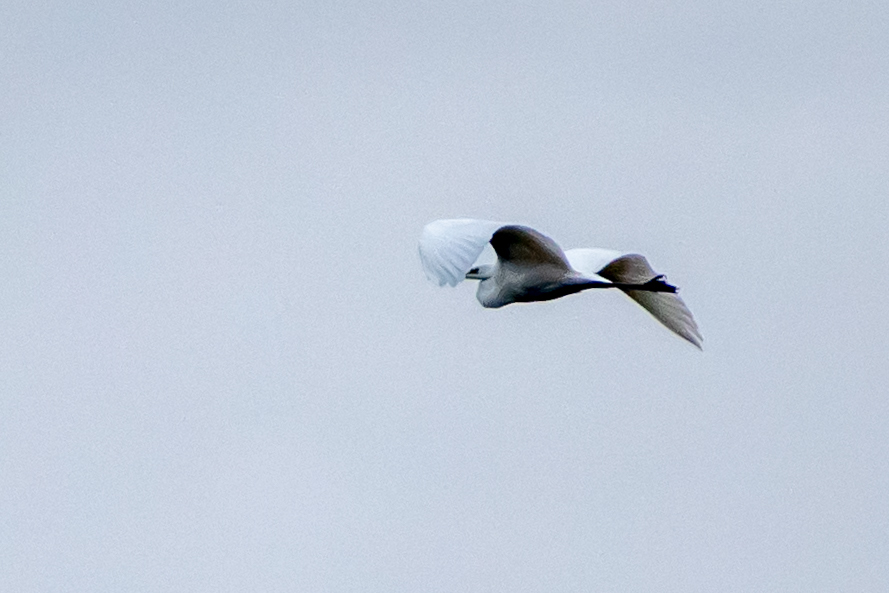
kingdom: Animalia
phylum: Chordata
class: Aves
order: Pelecaniformes
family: Ardeidae
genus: Ardea
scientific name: Ardea alba
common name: Great egret
